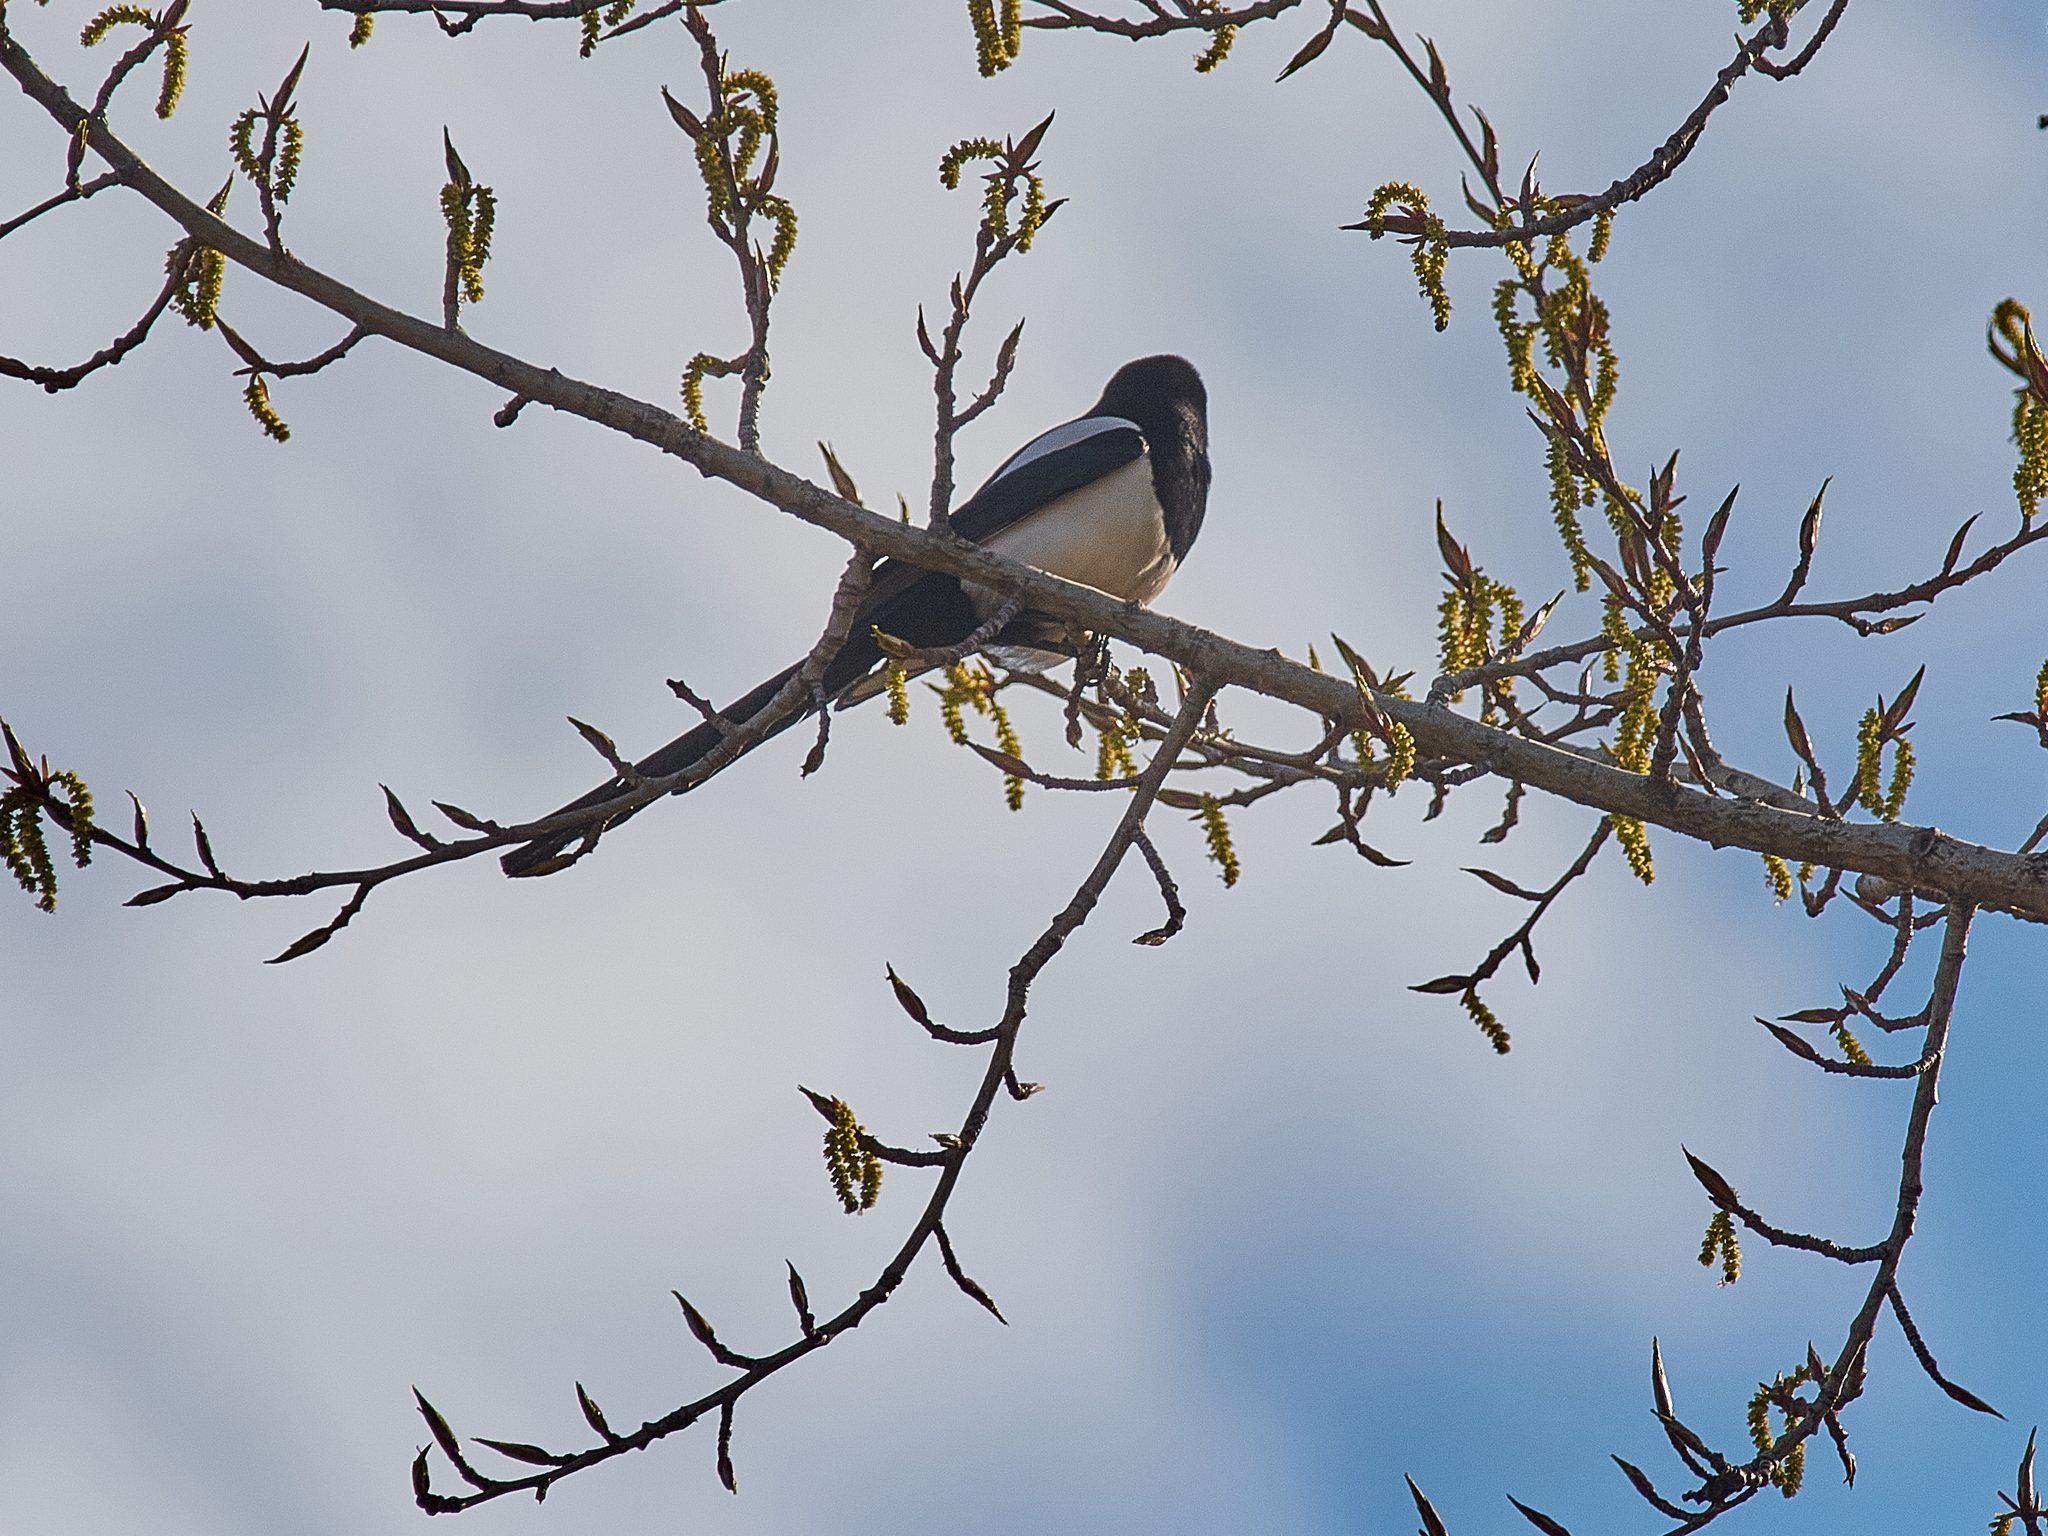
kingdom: Animalia
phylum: Chordata
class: Aves
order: Passeriformes
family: Corvidae
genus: Pica
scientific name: Pica pica
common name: Eurasian magpie
